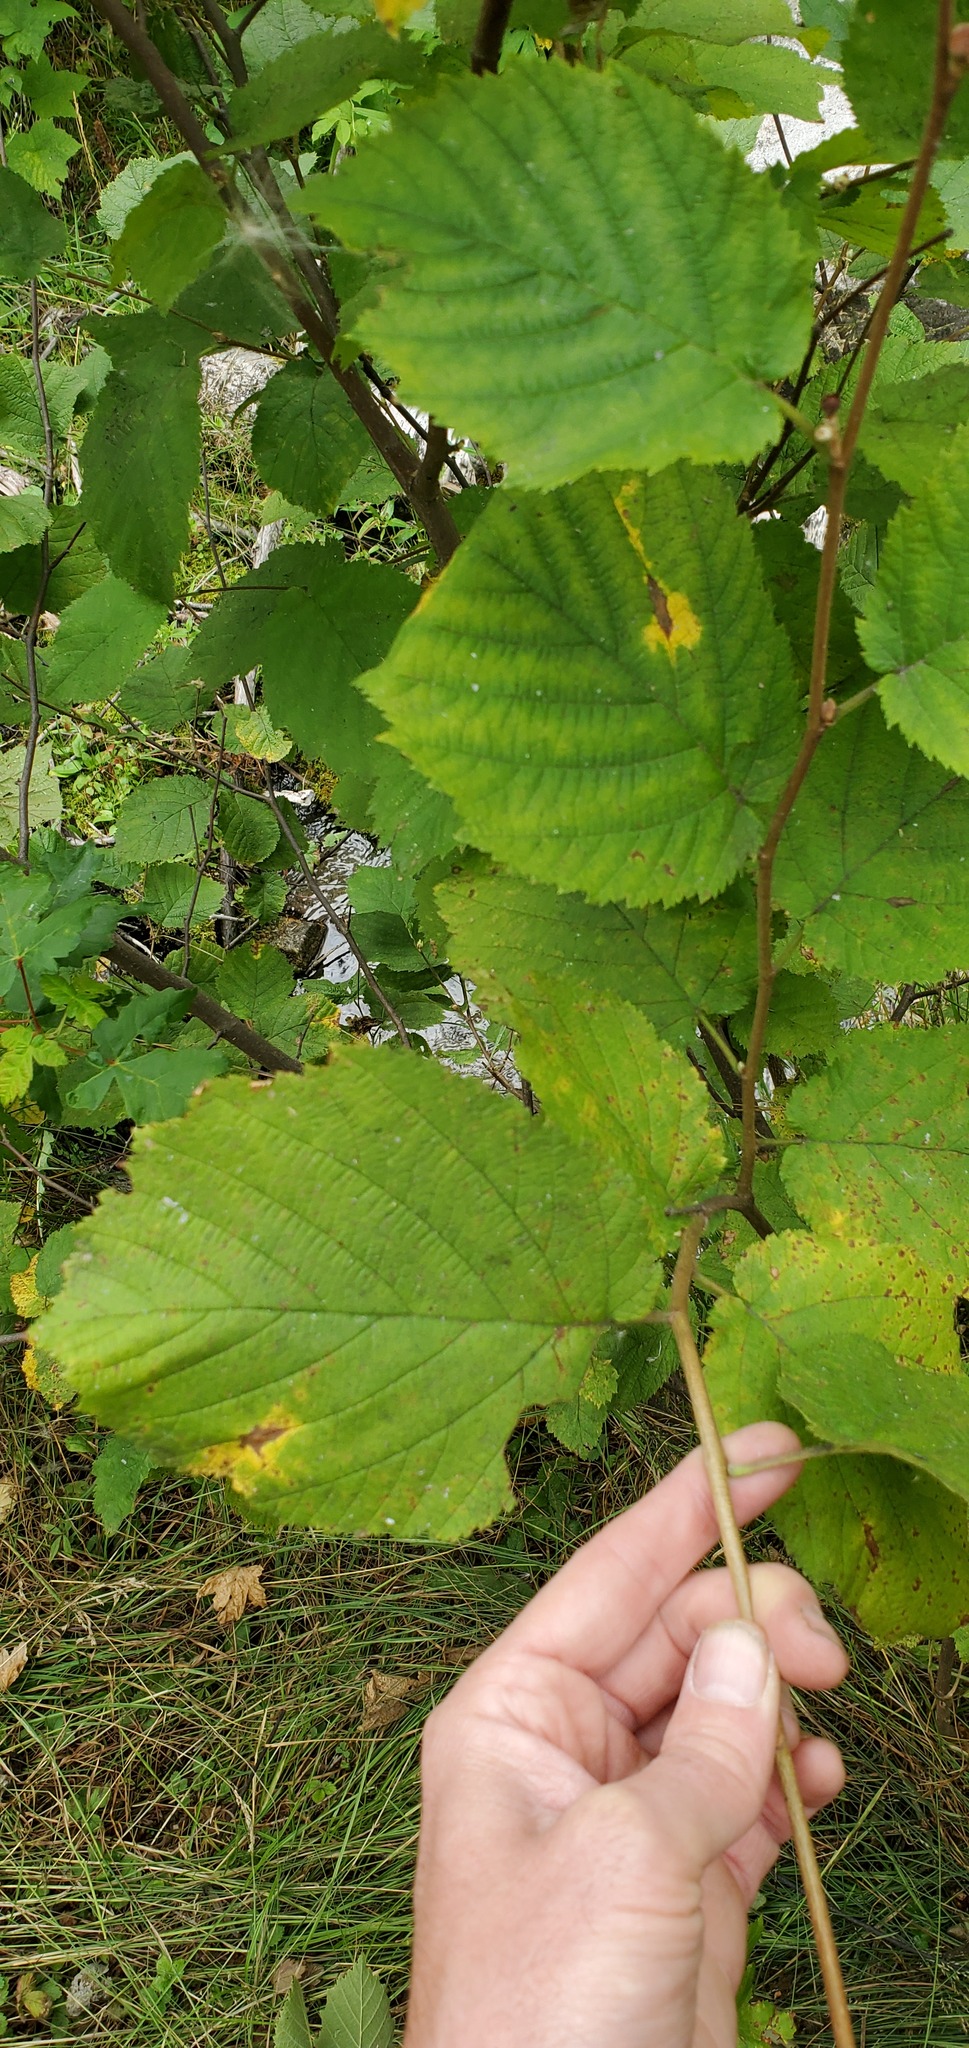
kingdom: Plantae
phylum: Tracheophyta
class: Magnoliopsida
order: Fagales
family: Betulaceae
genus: Corylus
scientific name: Corylus cornuta
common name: Beaked hazel
